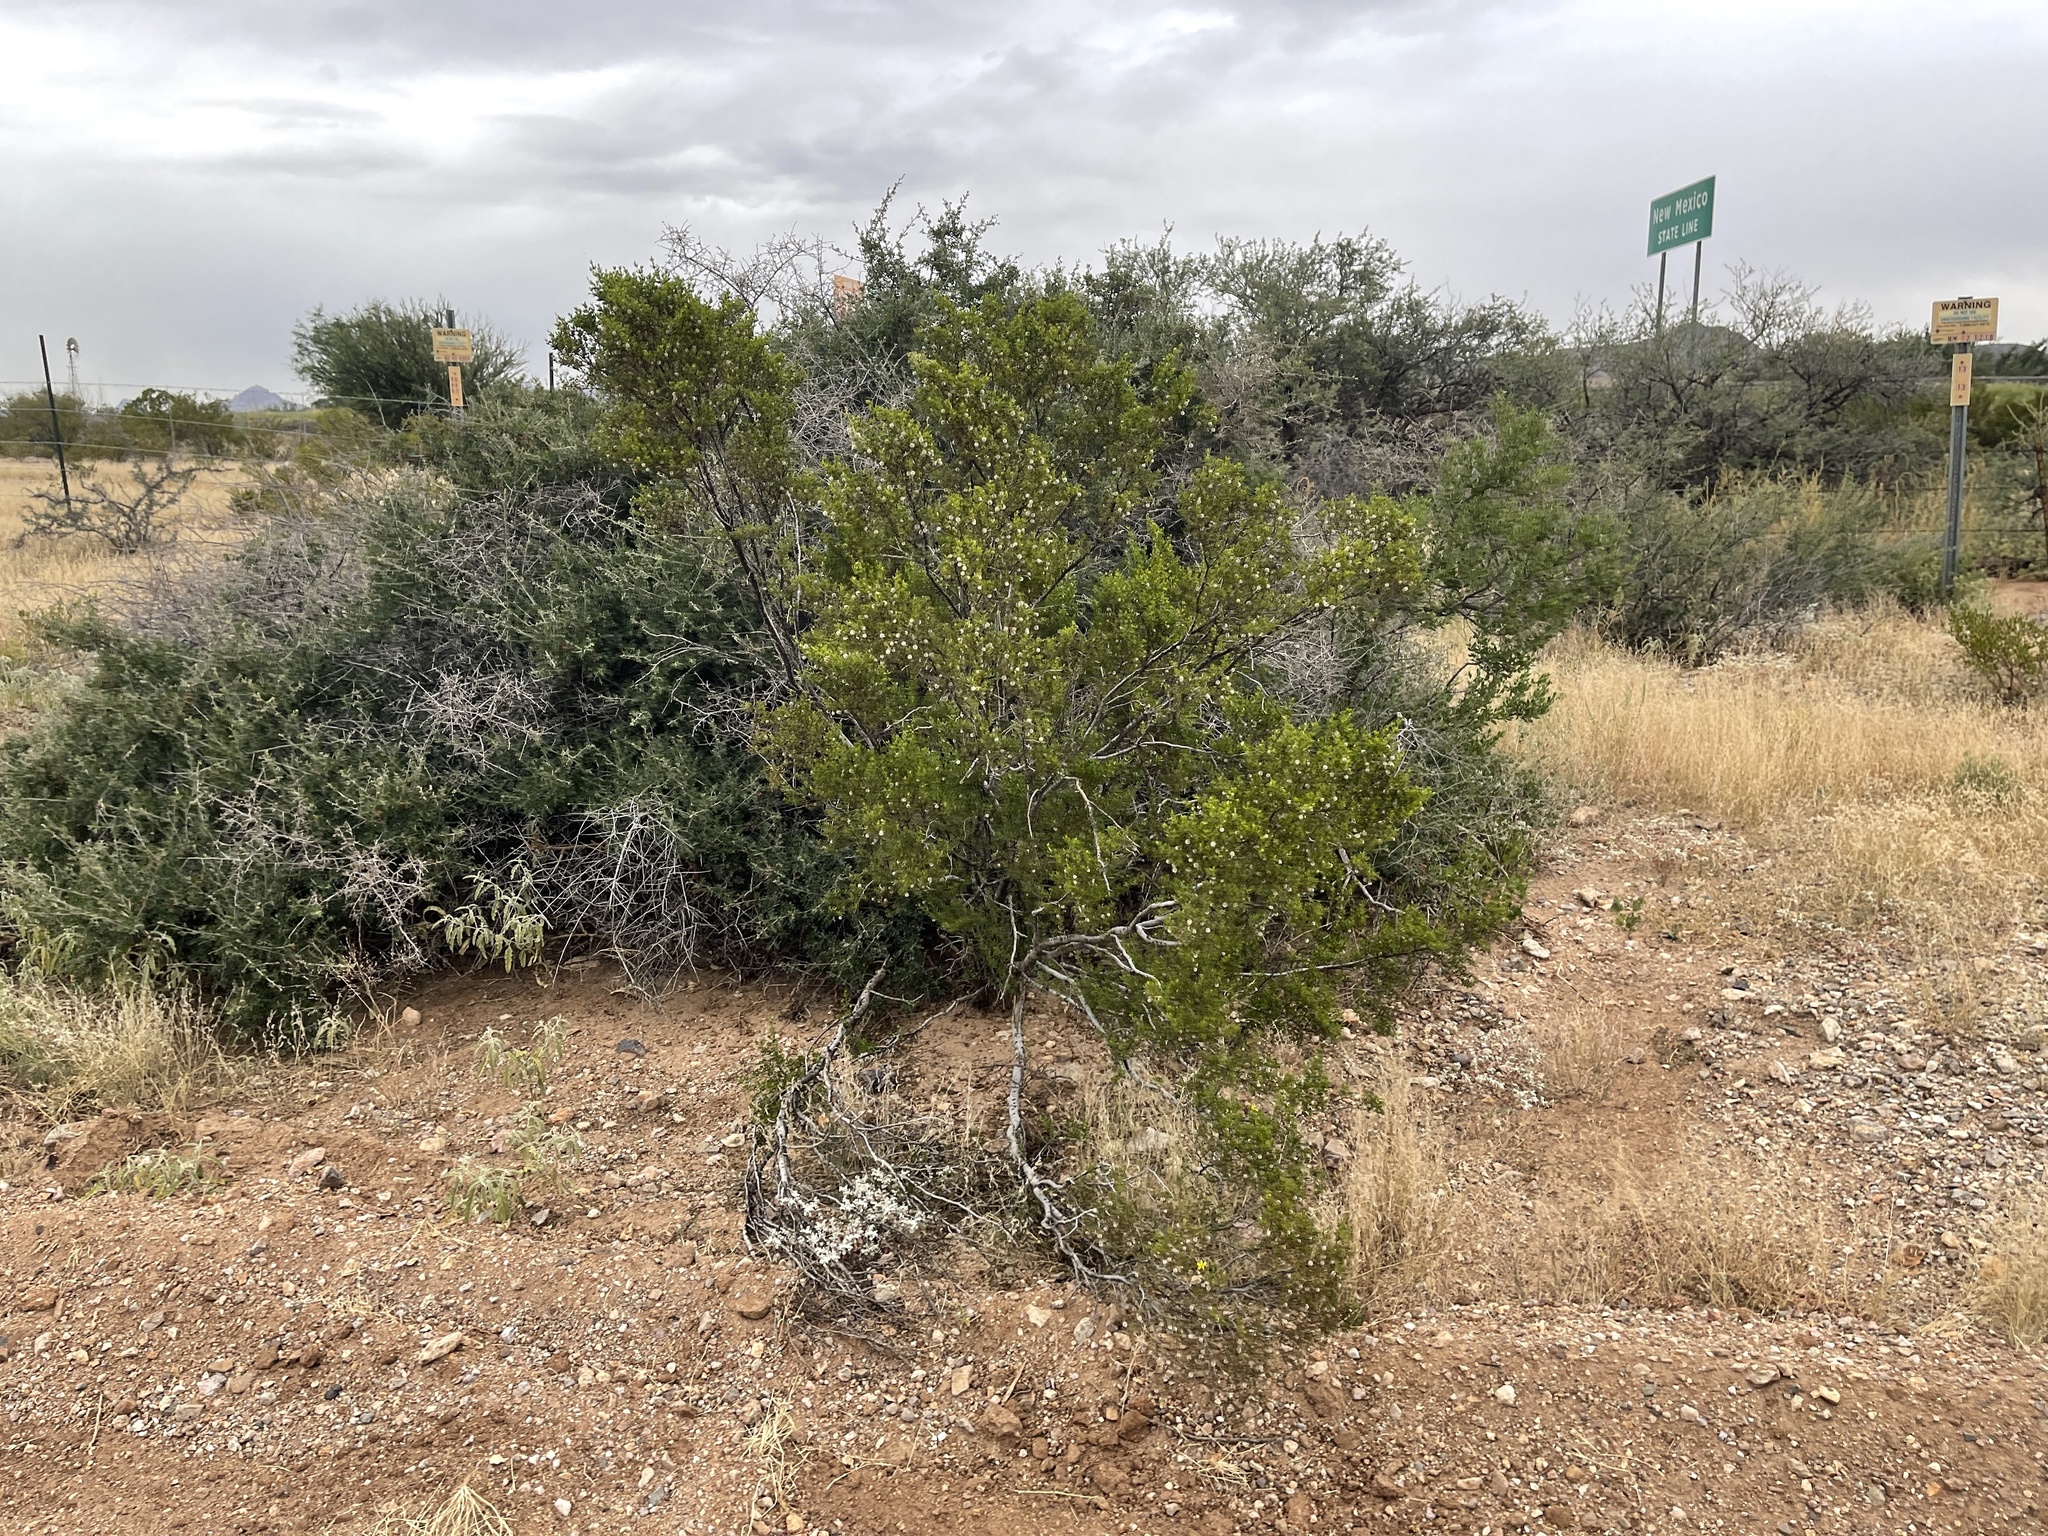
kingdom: Plantae
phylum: Tracheophyta
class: Magnoliopsida
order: Zygophyllales
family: Zygophyllaceae
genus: Larrea
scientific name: Larrea tridentata
